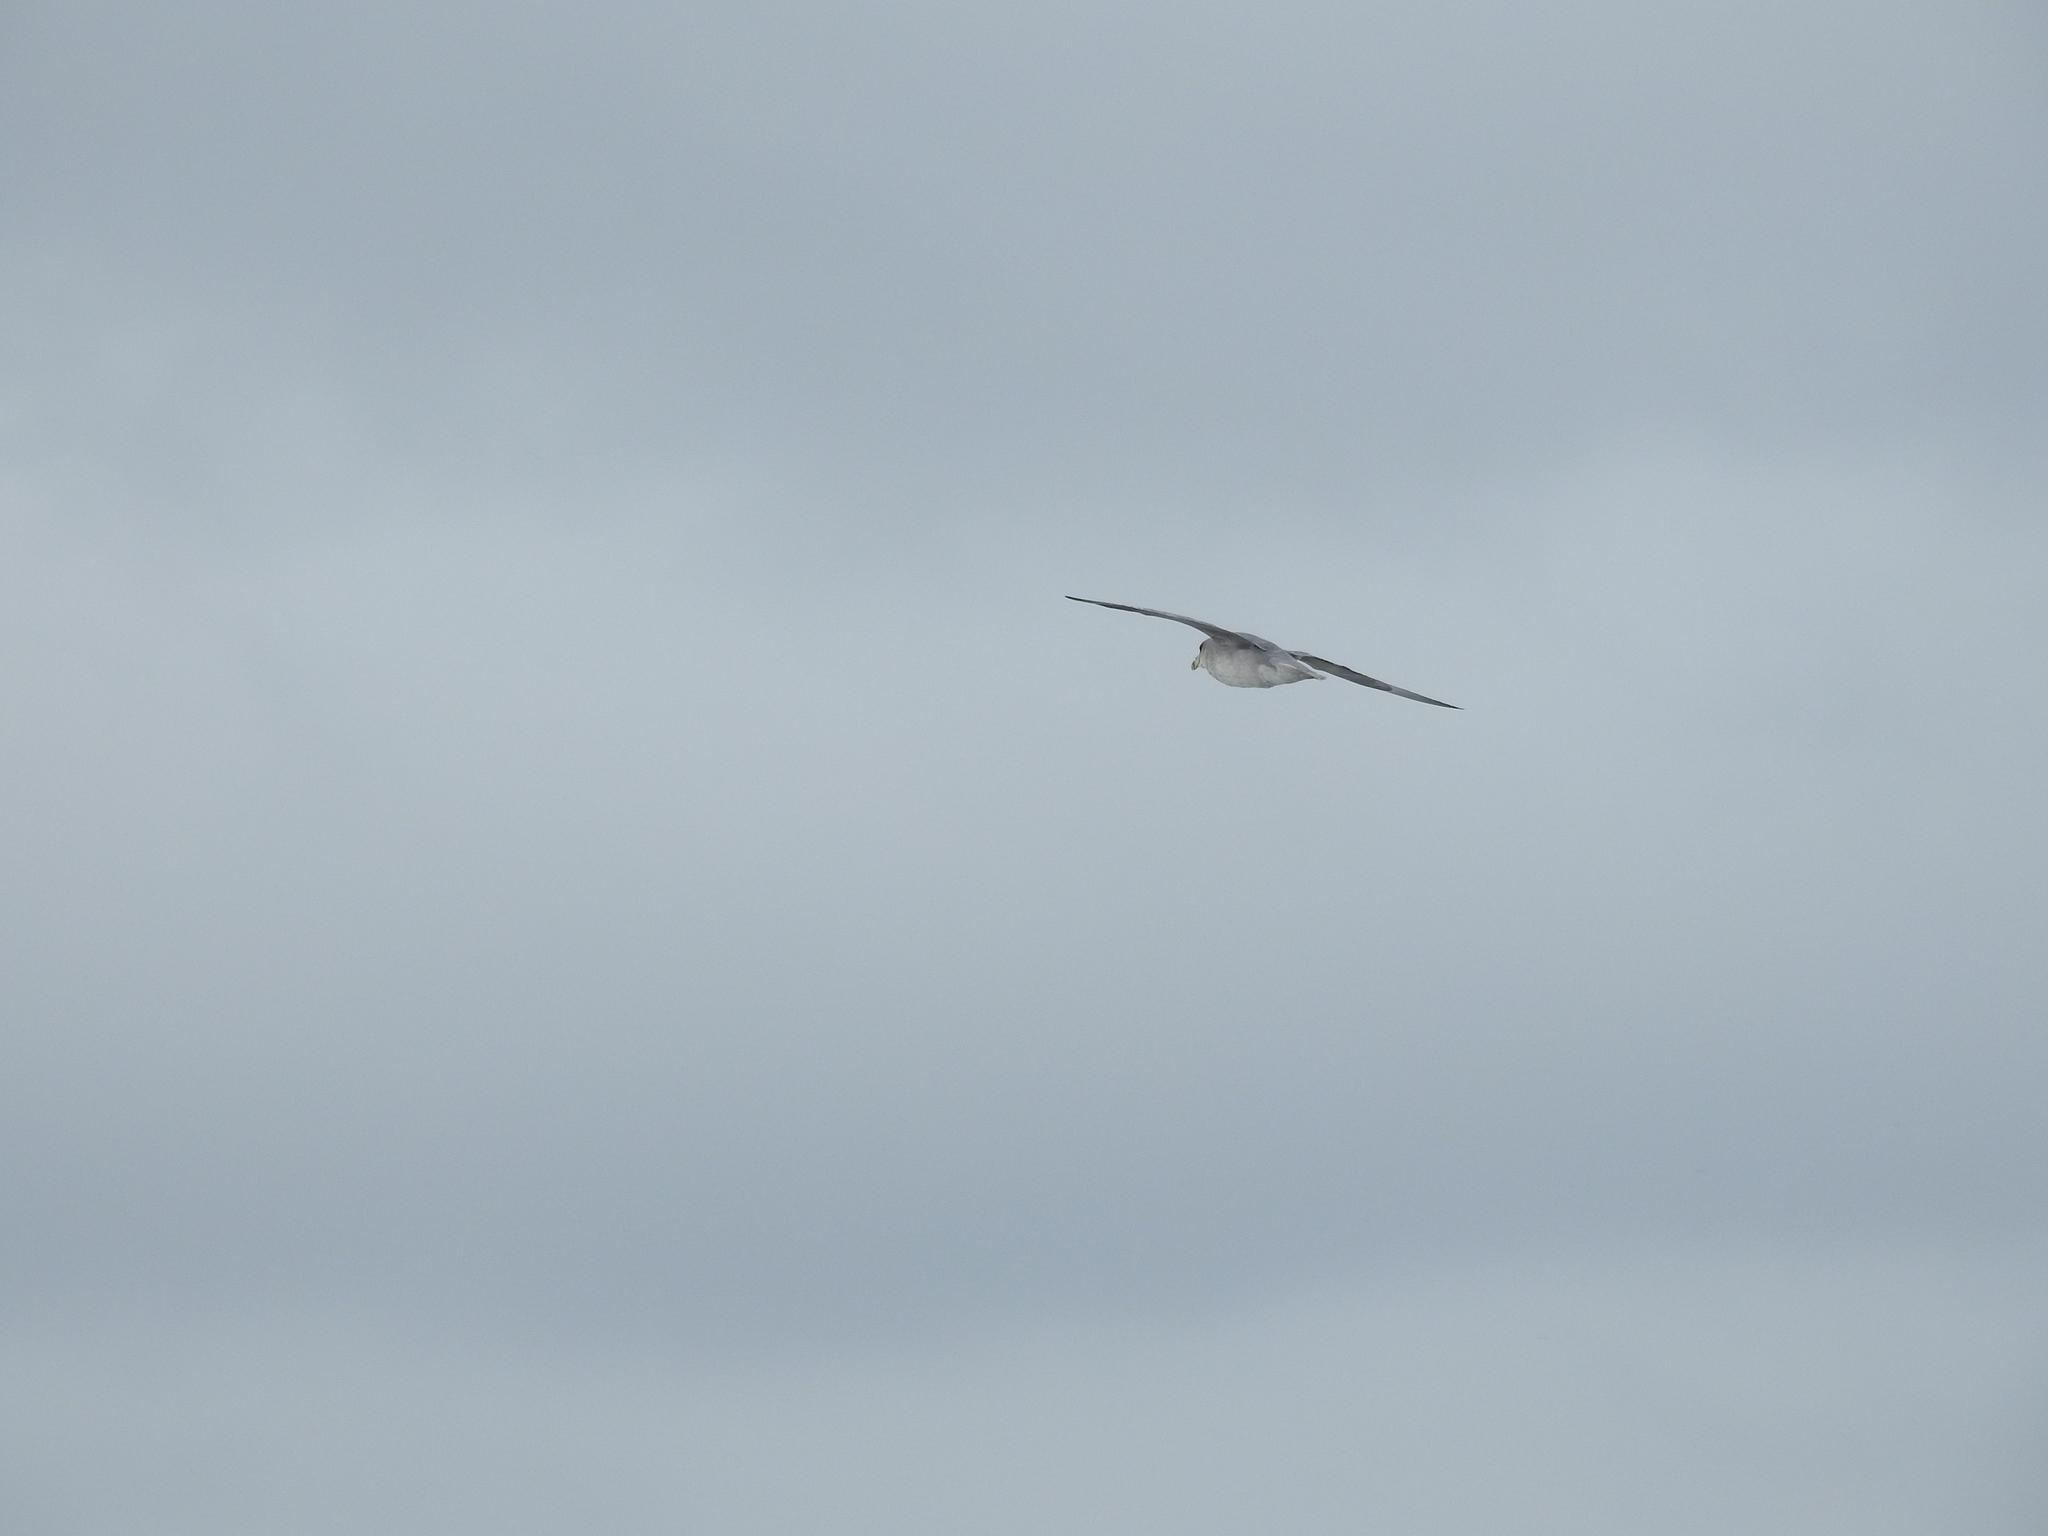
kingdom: Animalia
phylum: Chordata
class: Aves
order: Procellariiformes
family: Procellariidae
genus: Fulmarus
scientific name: Fulmarus glacialis
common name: Northern fulmar
